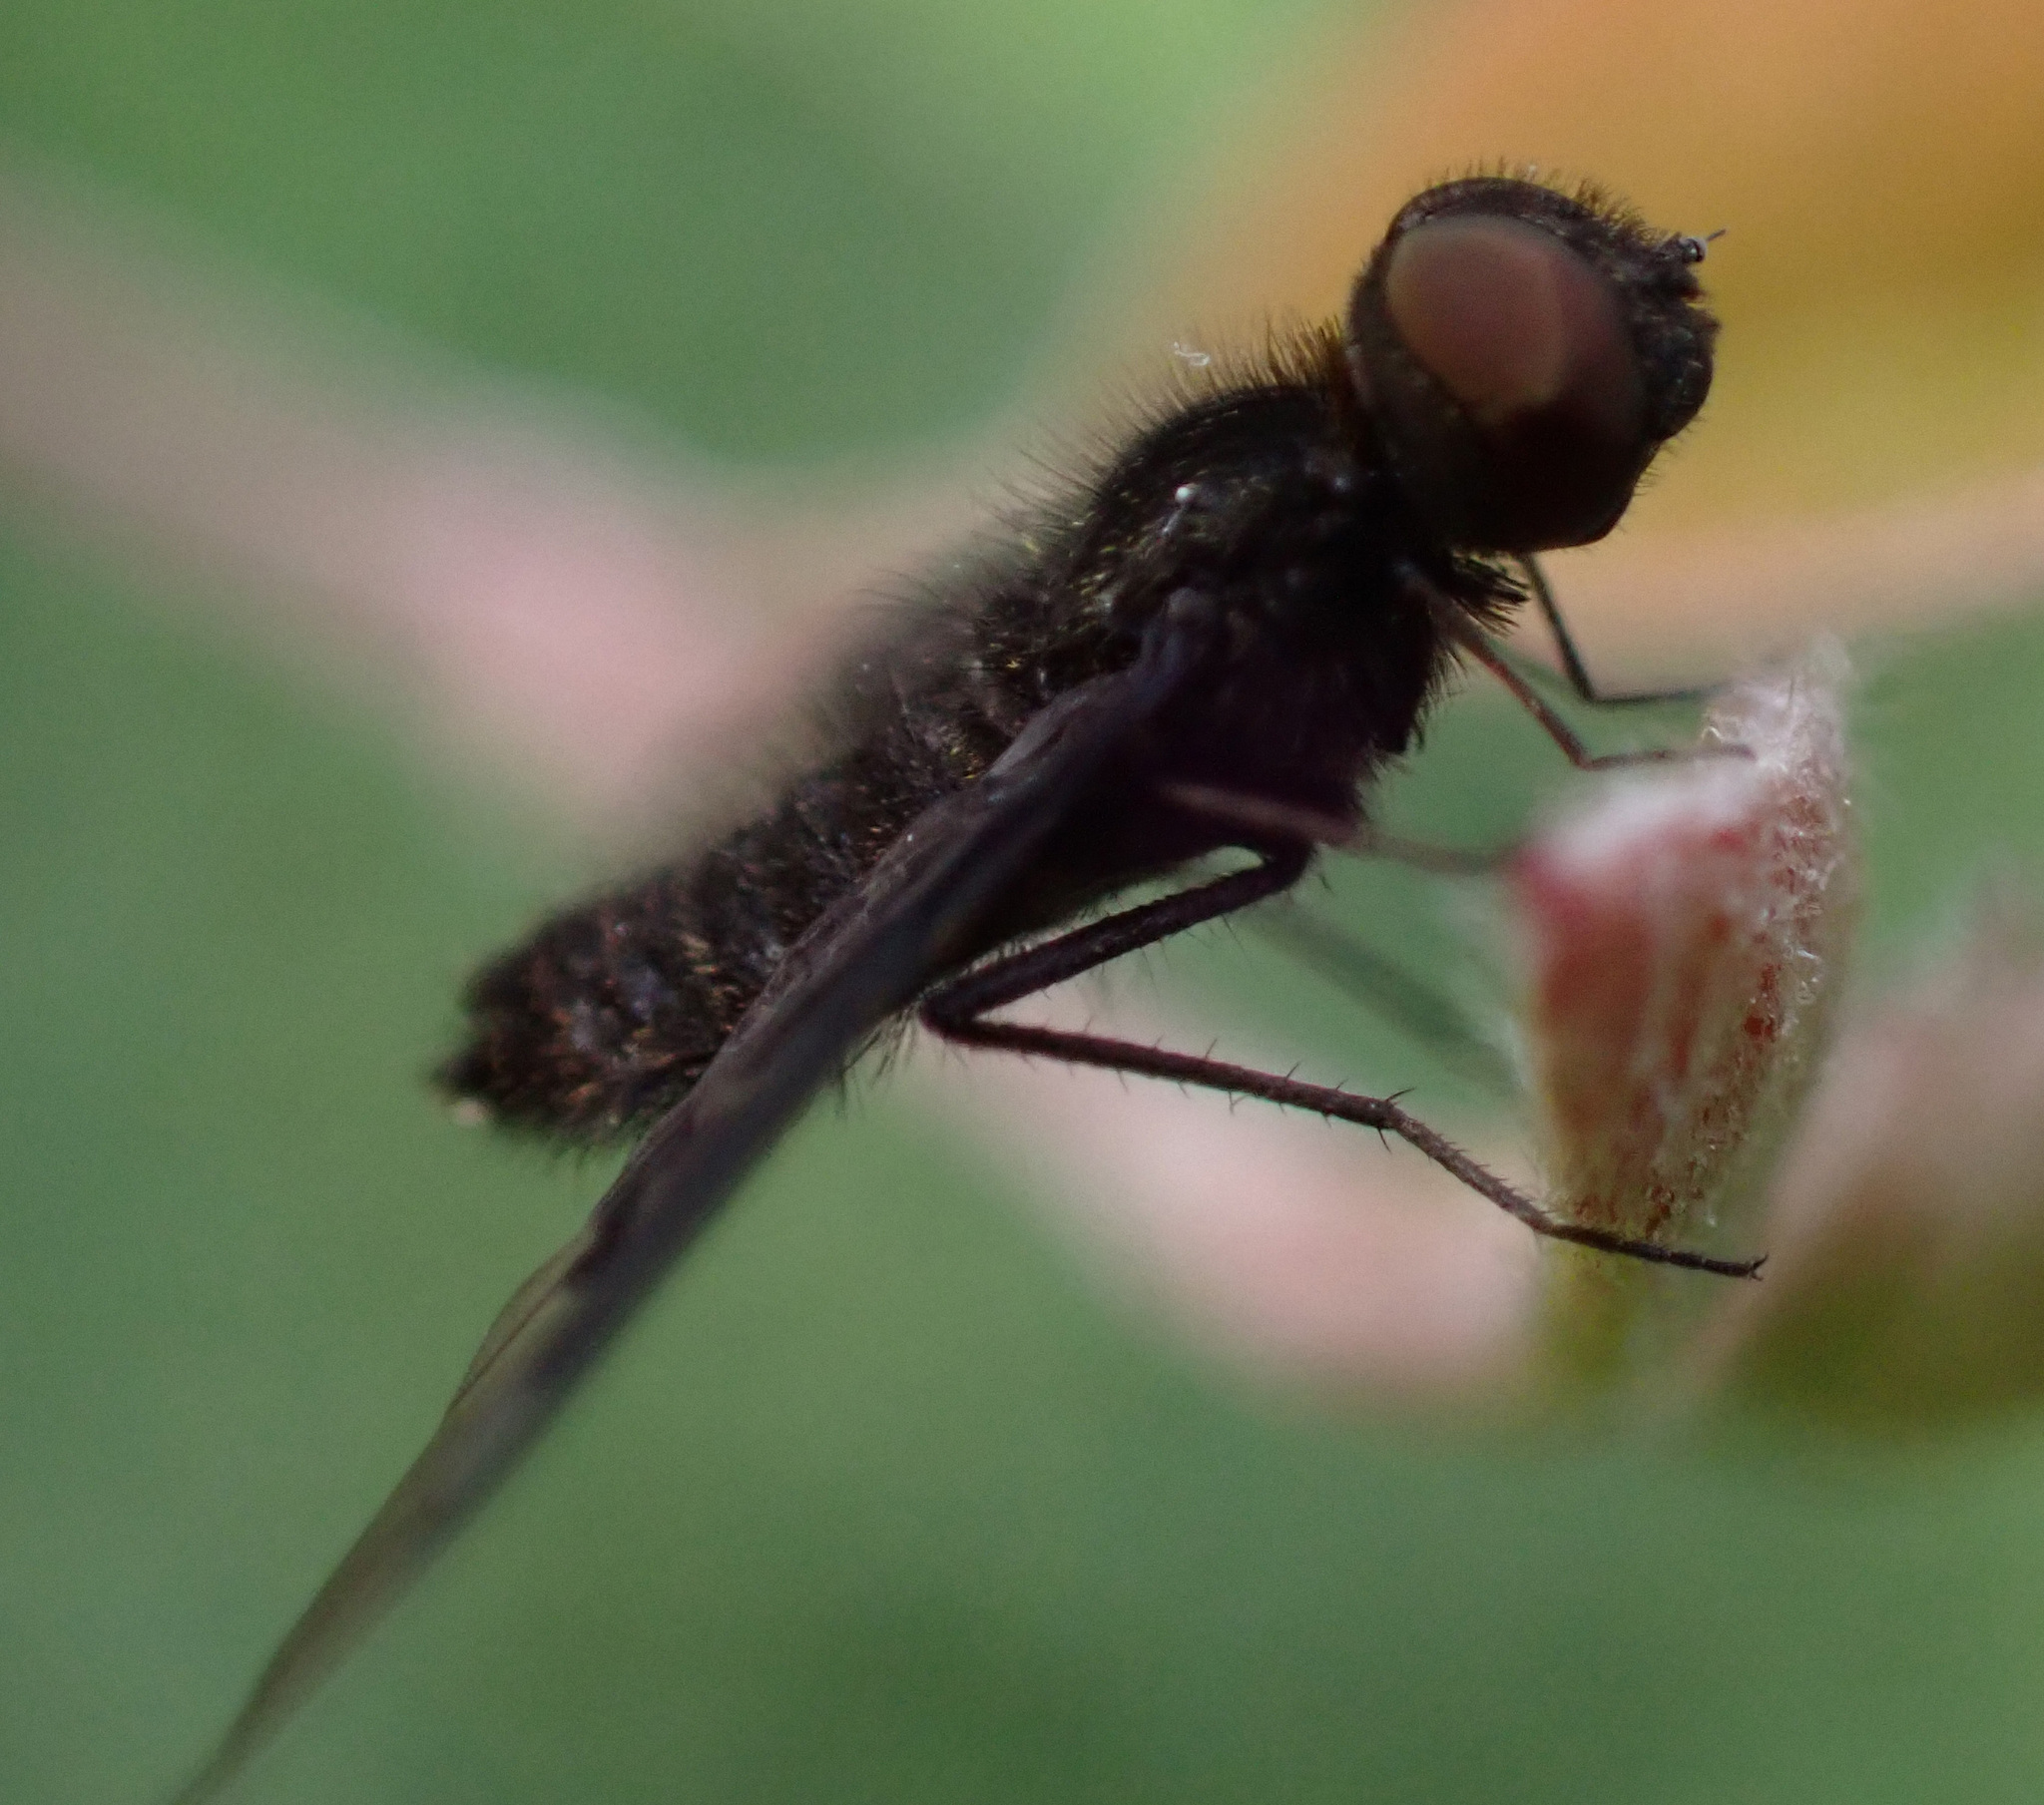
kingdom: Animalia
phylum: Arthropoda
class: Insecta
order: Diptera
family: Bombyliidae
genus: Hemipenthes
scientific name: Hemipenthes morio
